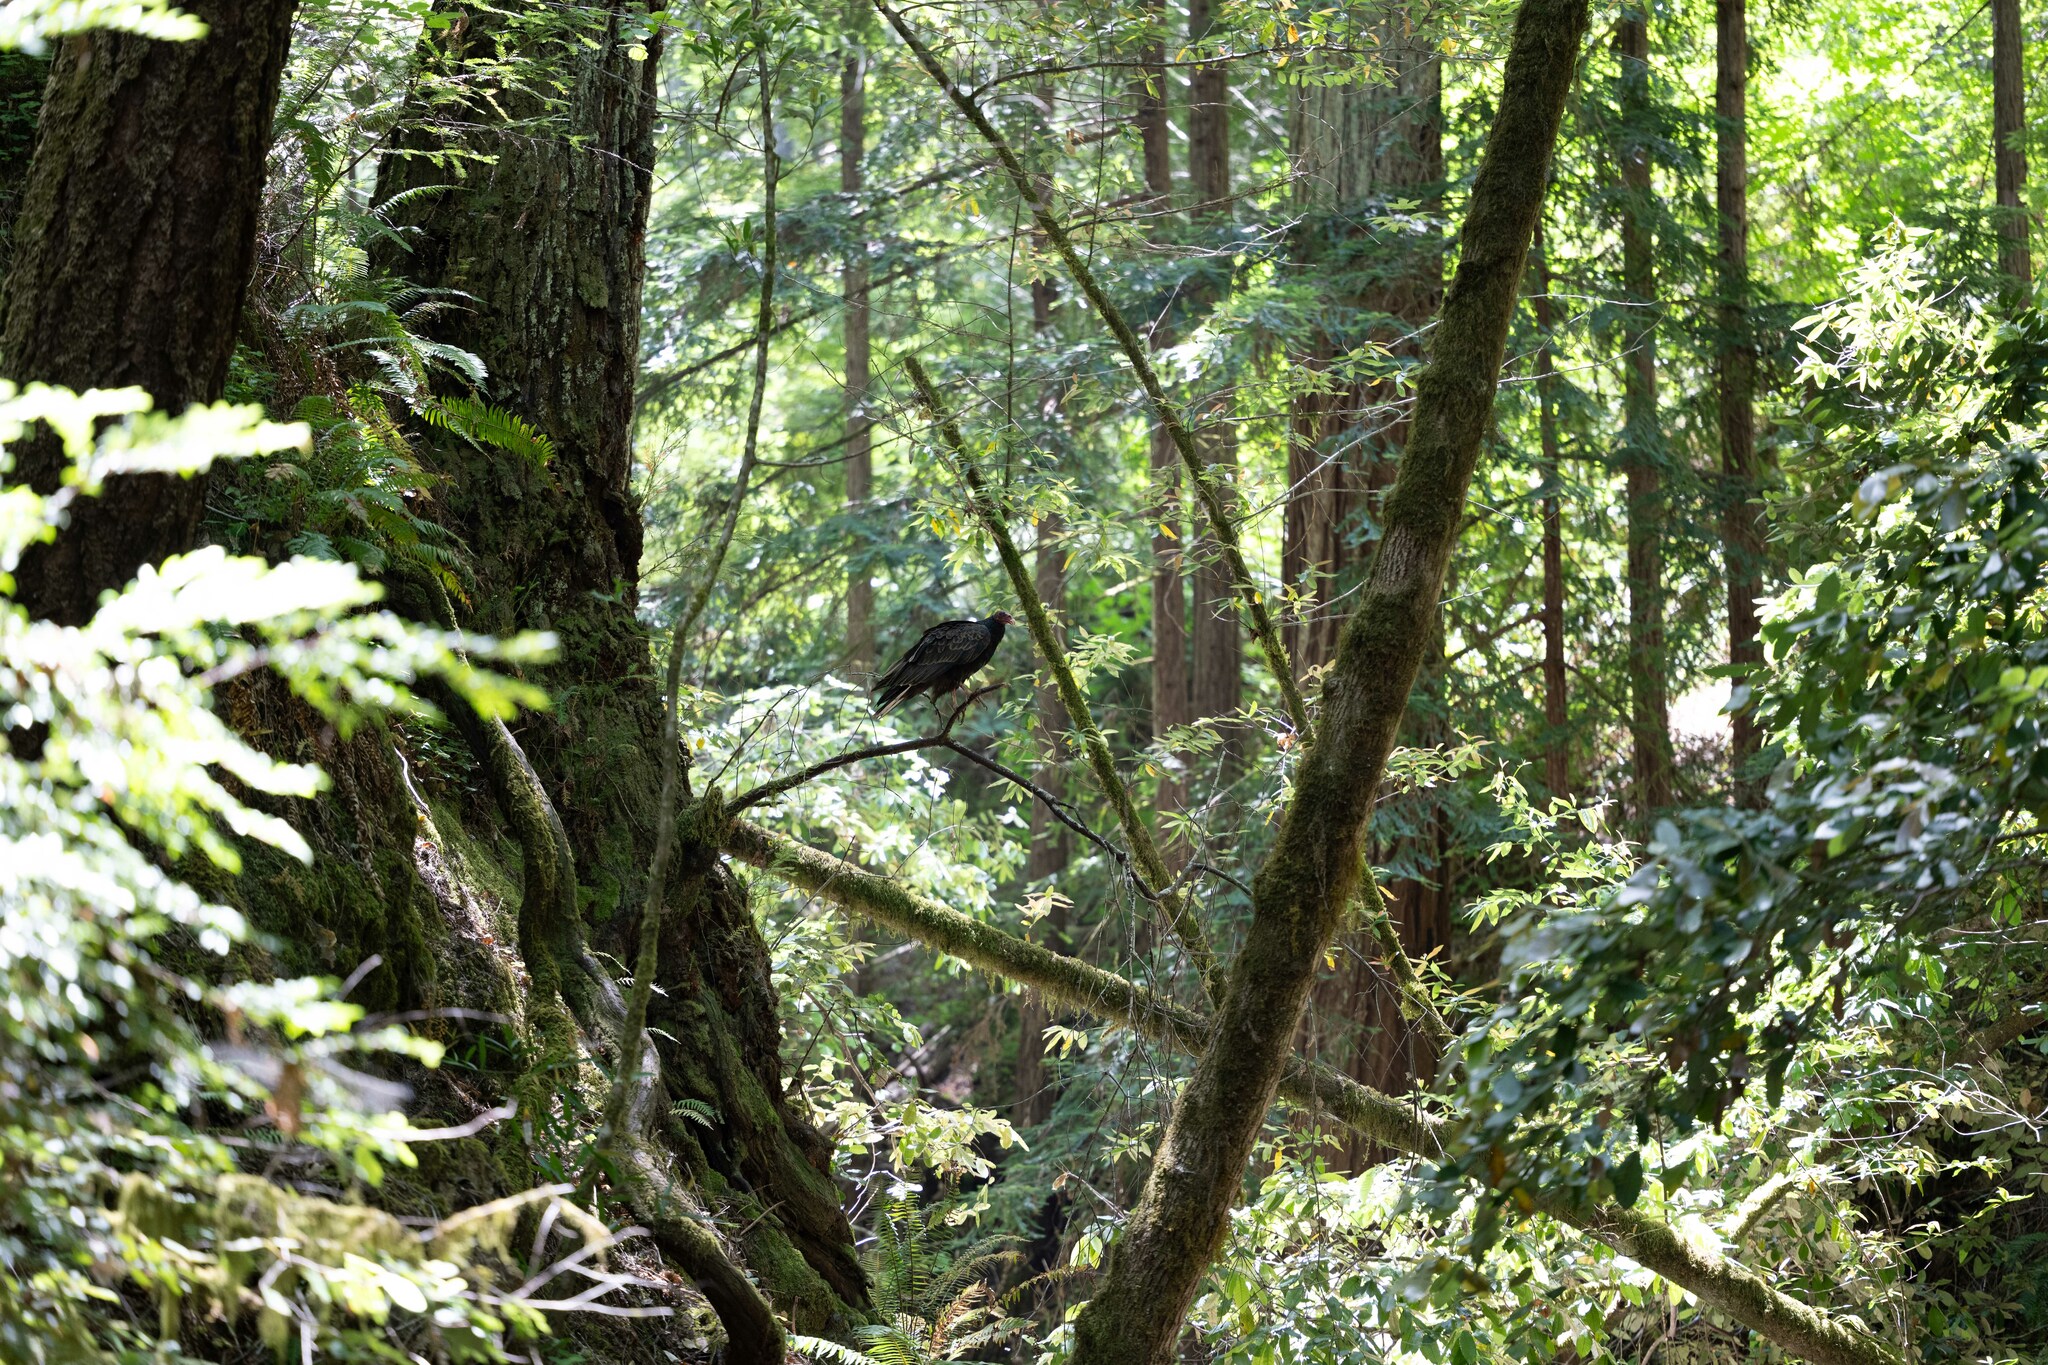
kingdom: Animalia
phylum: Chordata
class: Aves
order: Accipitriformes
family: Cathartidae
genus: Cathartes
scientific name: Cathartes aura
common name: Turkey vulture
